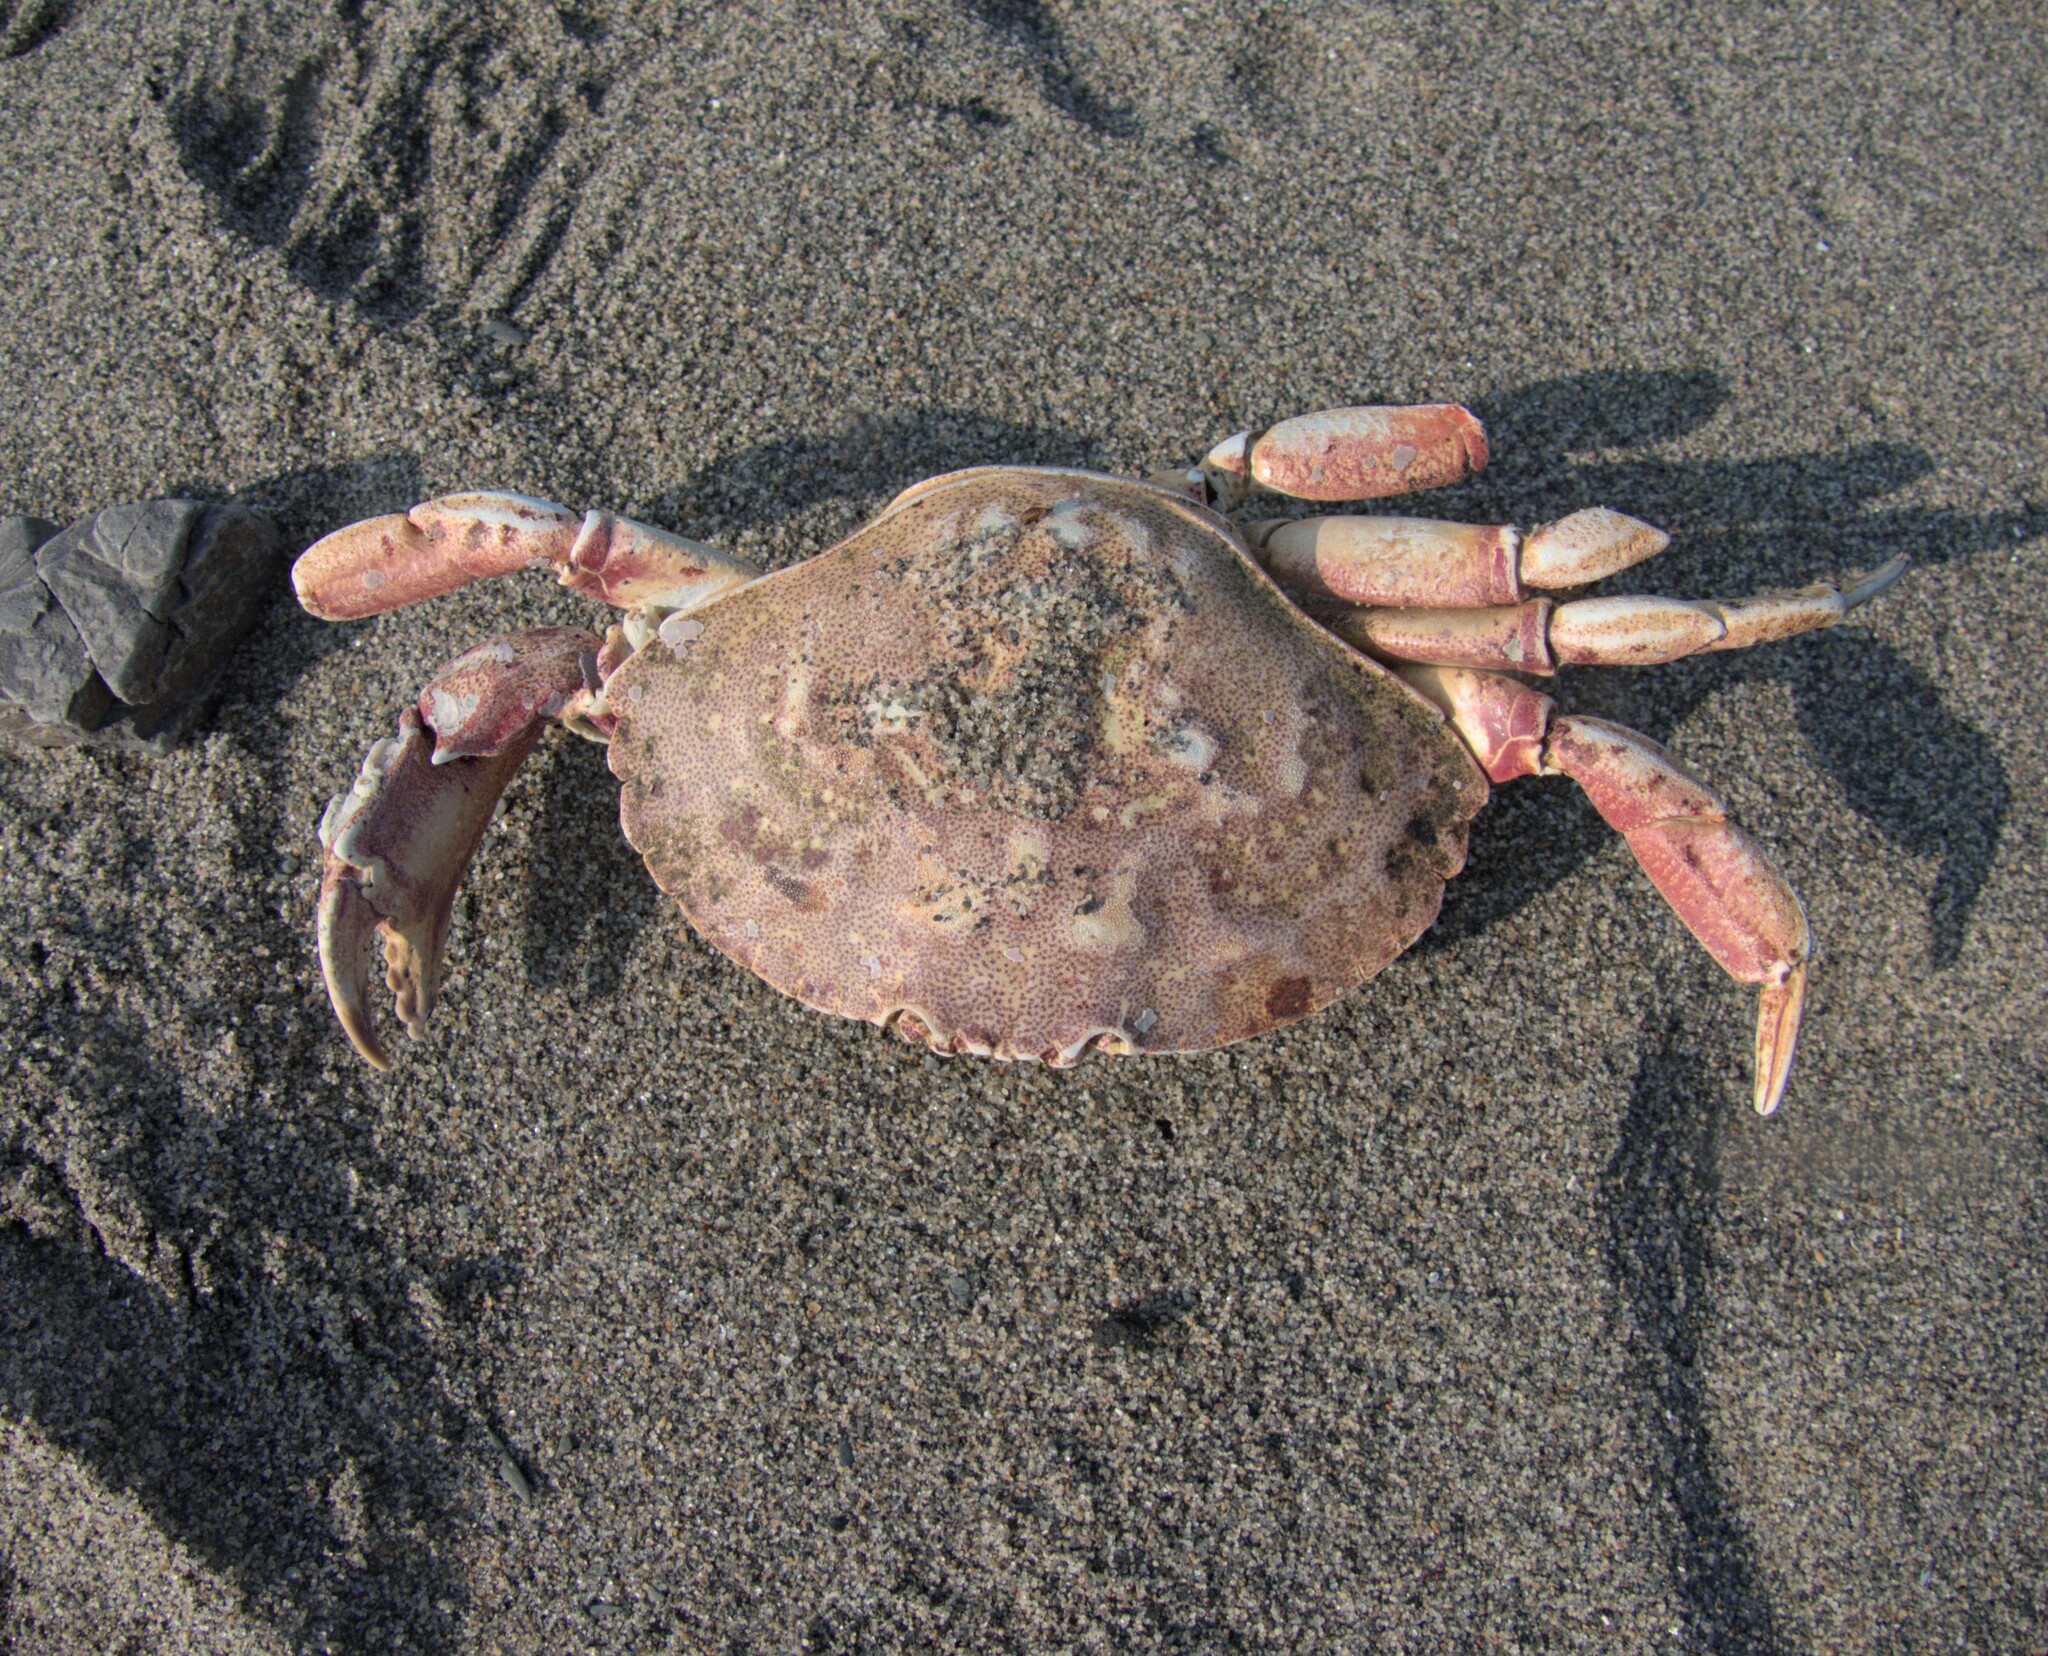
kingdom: Animalia
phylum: Arthropoda
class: Malacostraca
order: Decapoda
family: Cancridae
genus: Cancer
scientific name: Cancer irroratus
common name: Atlantic rock crab
